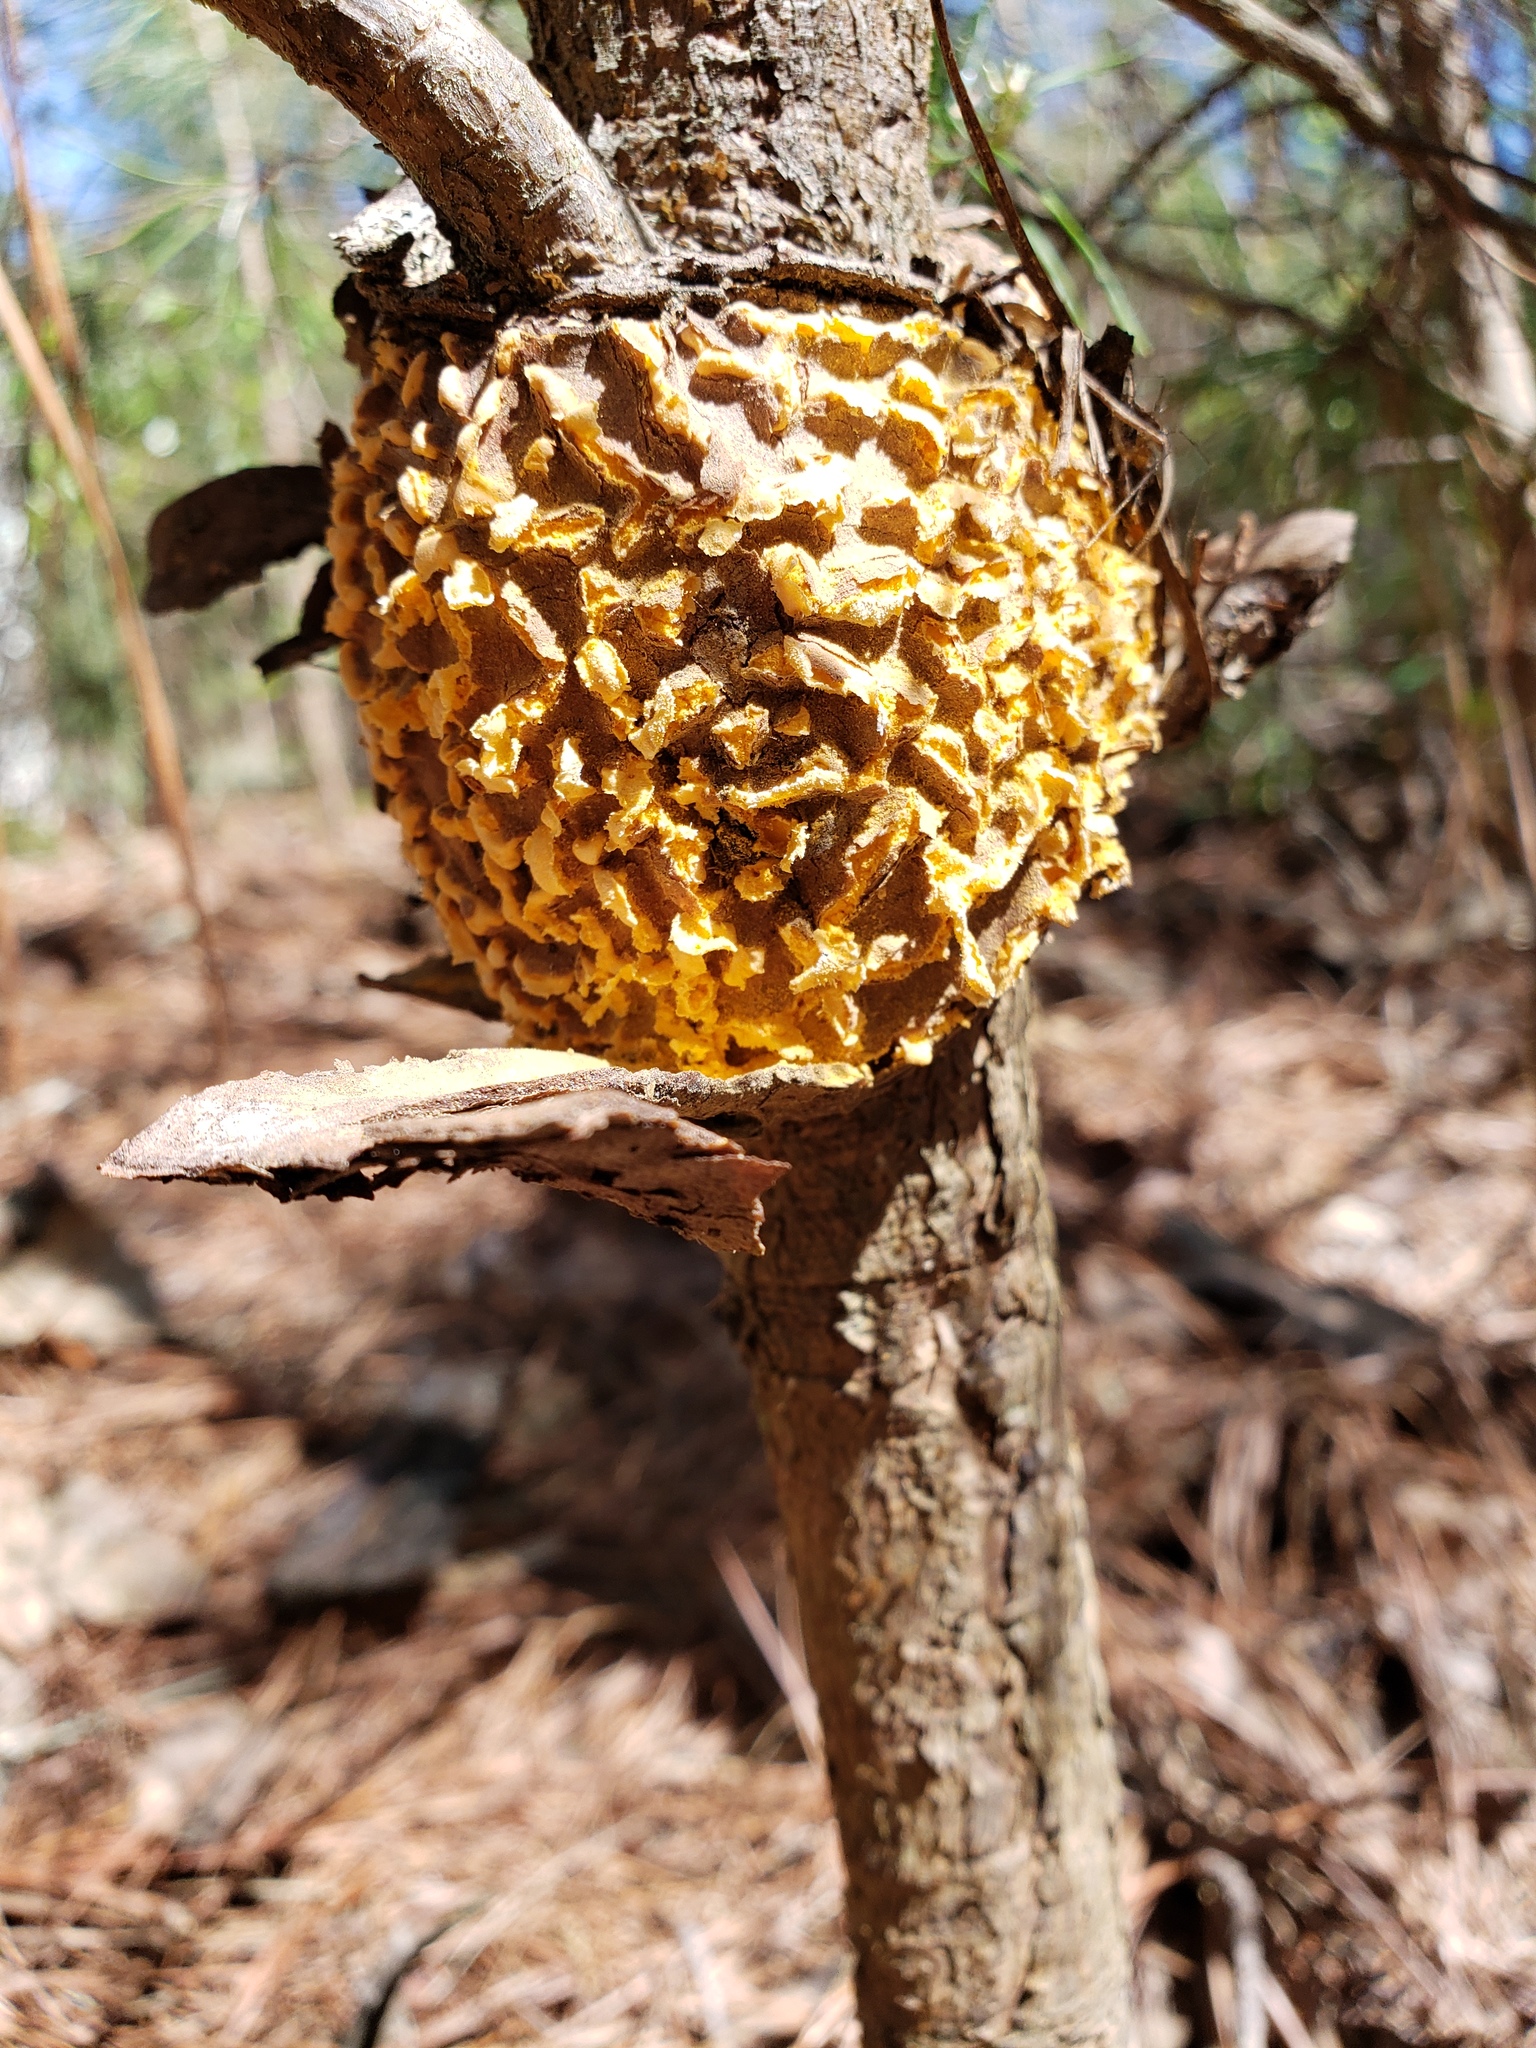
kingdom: Fungi
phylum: Basidiomycota
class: Pucciniomycetes
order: Pucciniales
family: Cronartiaceae
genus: Cronartium
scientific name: Cronartium quercuum
